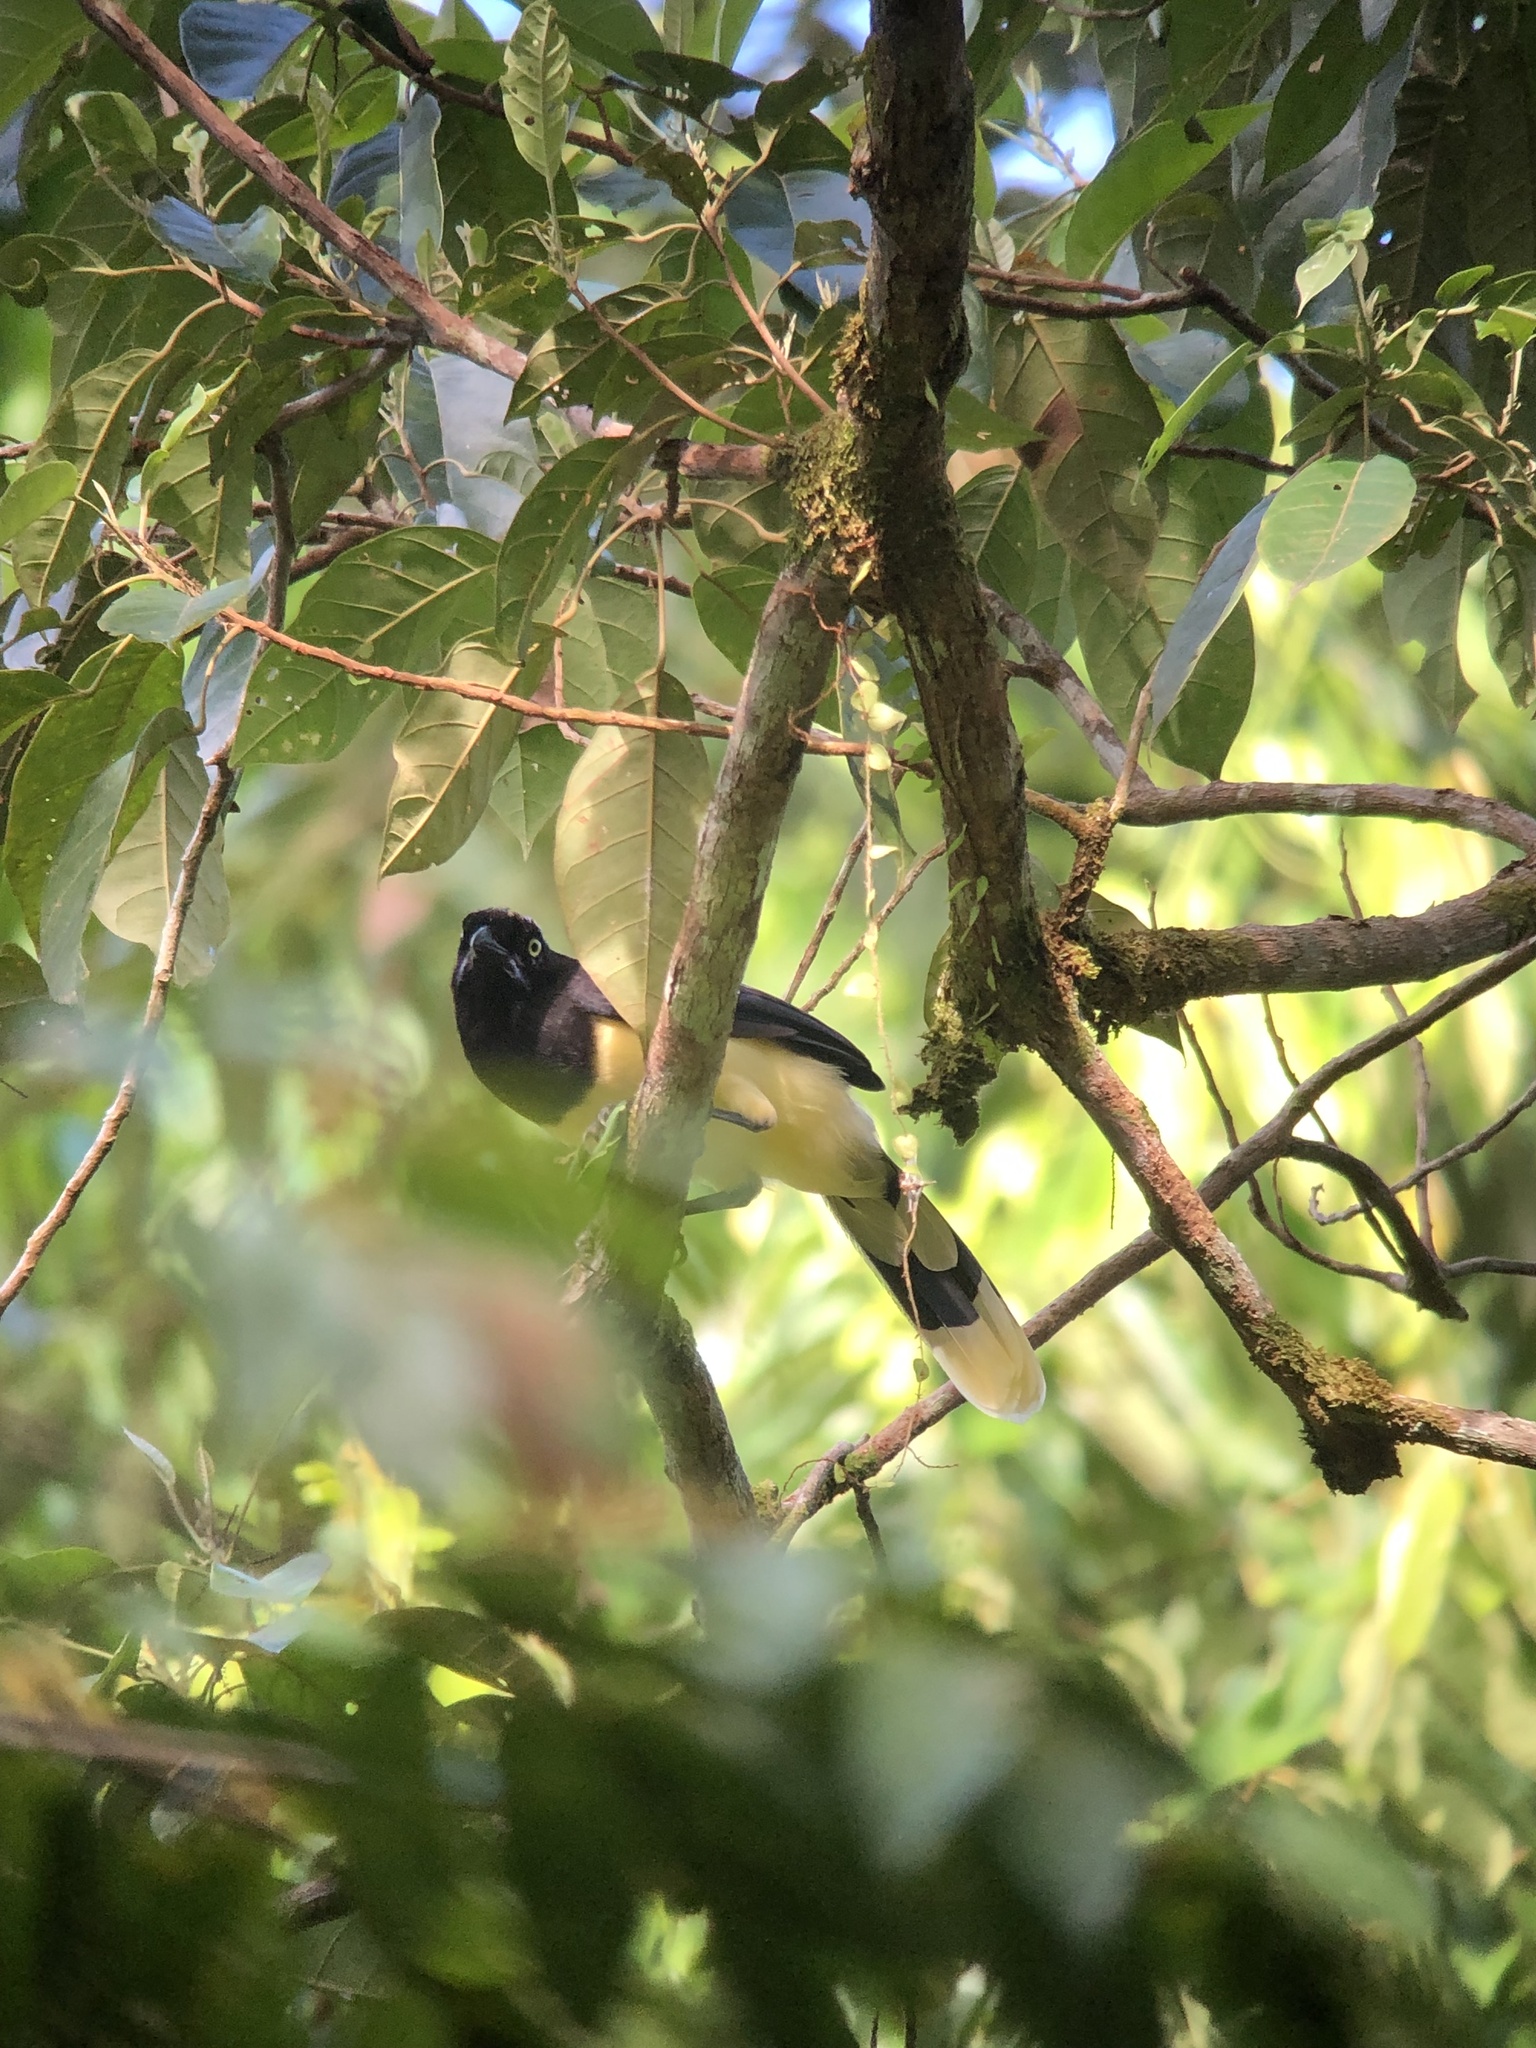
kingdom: Animalia
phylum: Chordata
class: Aves
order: Passeriformes
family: Corvidae
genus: Cyanocorax
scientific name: Cyanocorax affinis
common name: Black-chested jay
